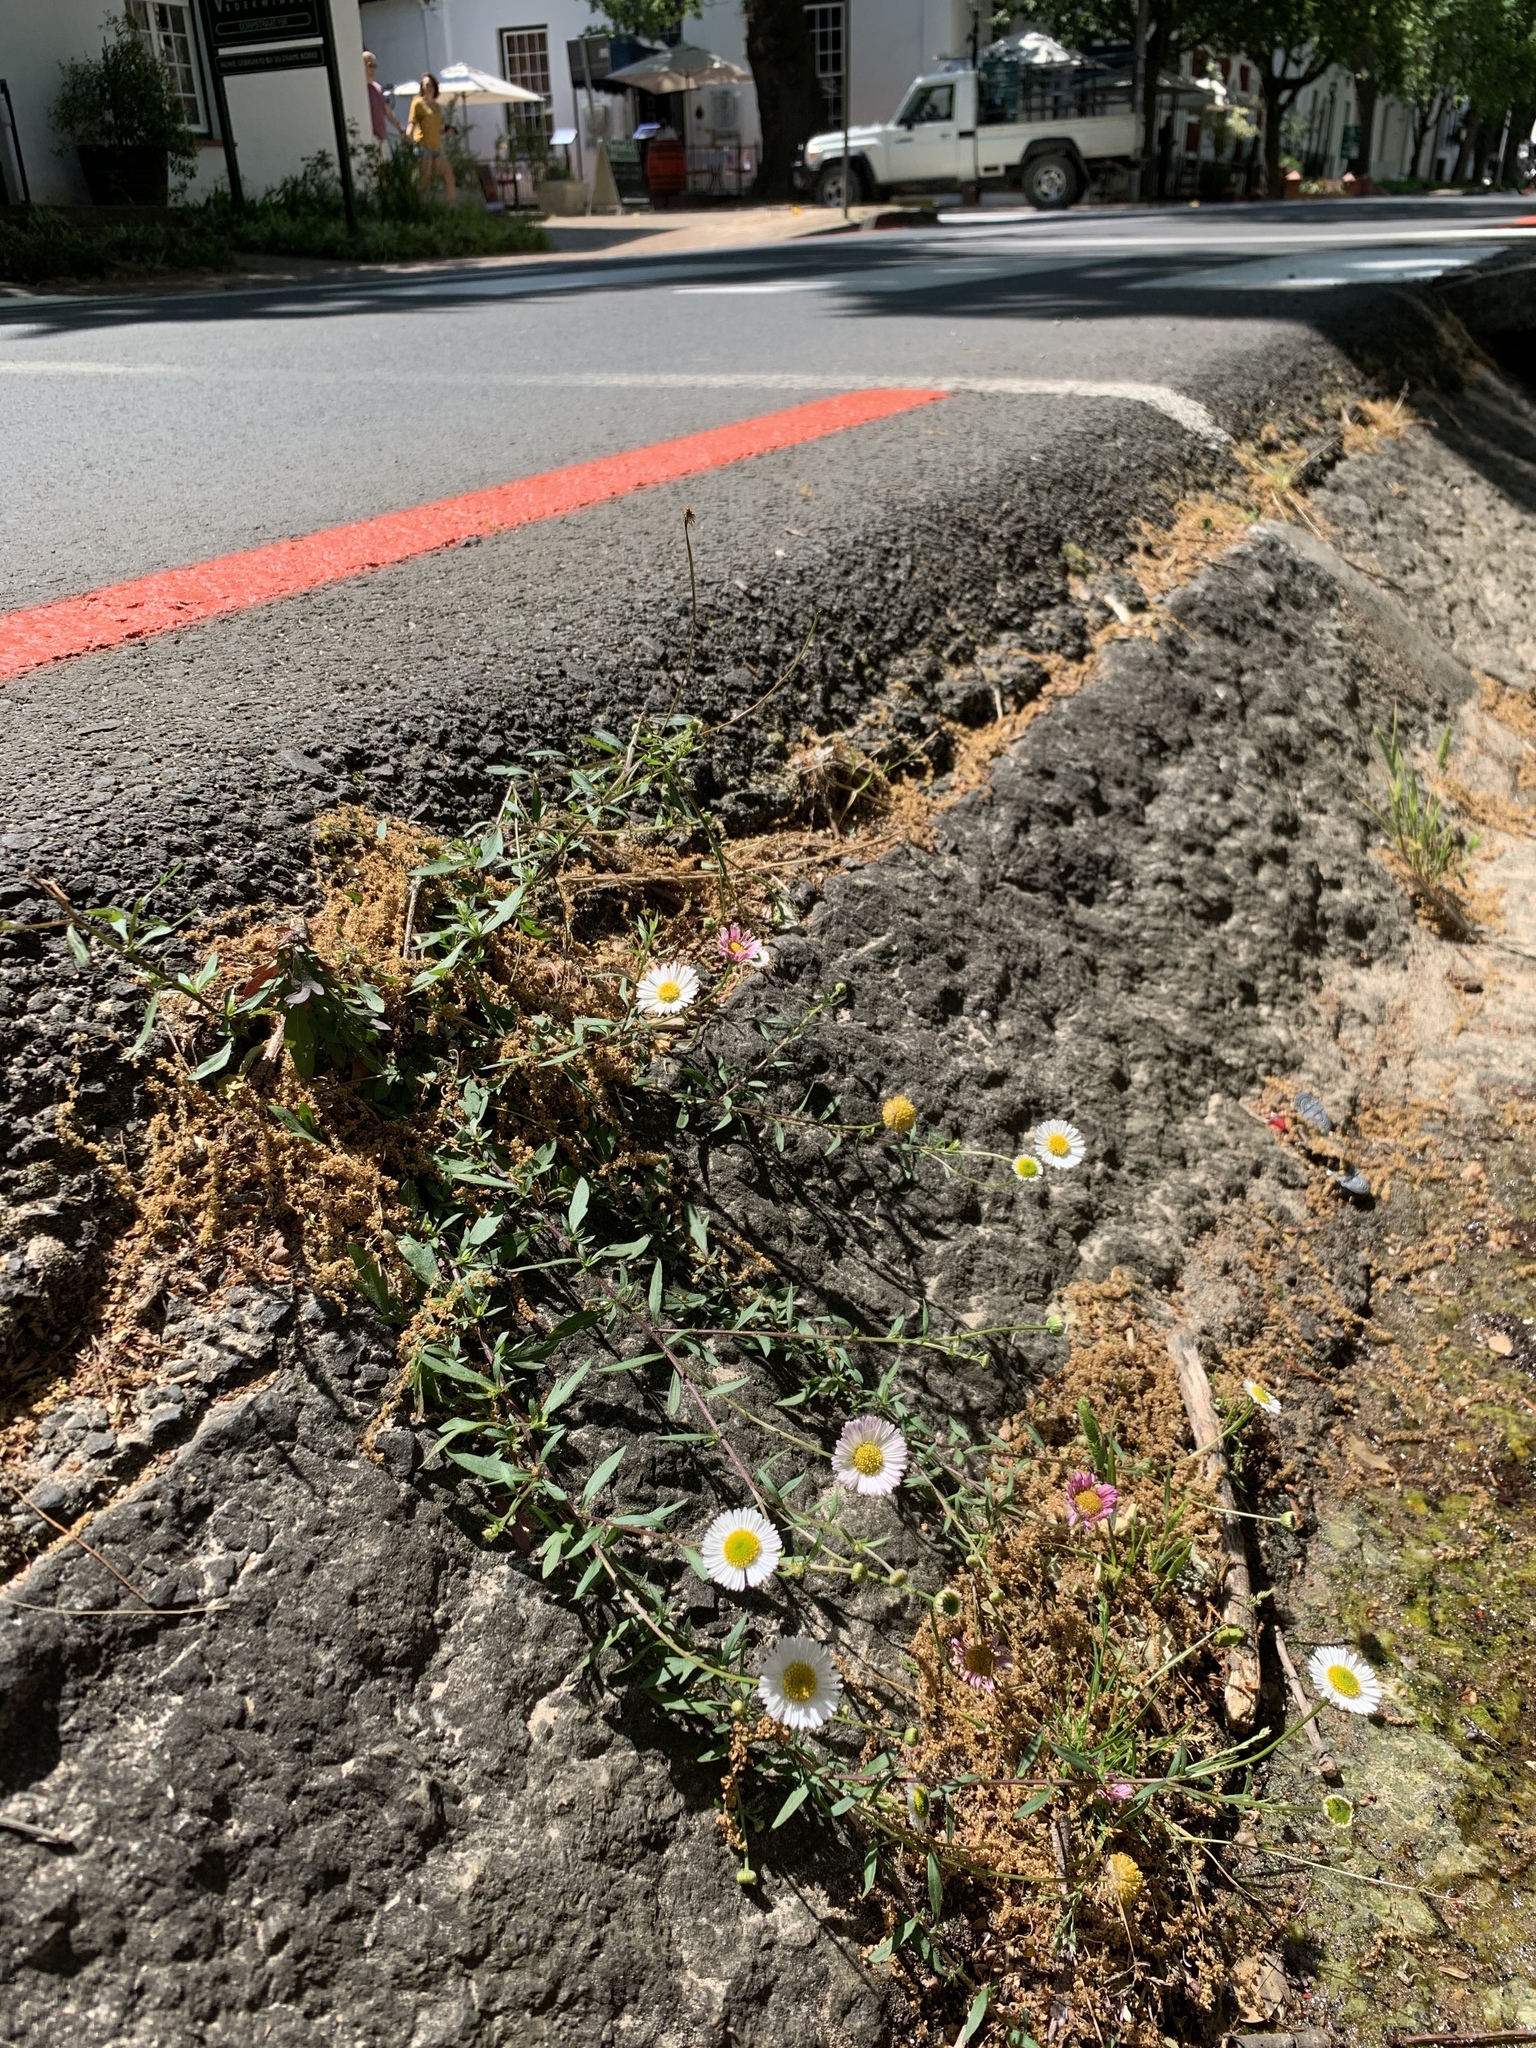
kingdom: Plantae
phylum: Tracheophyta
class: Magnoliopsida
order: Asterales
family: Asteraceae
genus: Erigeron
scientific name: Erigeron karvinskianus
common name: Mexican fleabane
